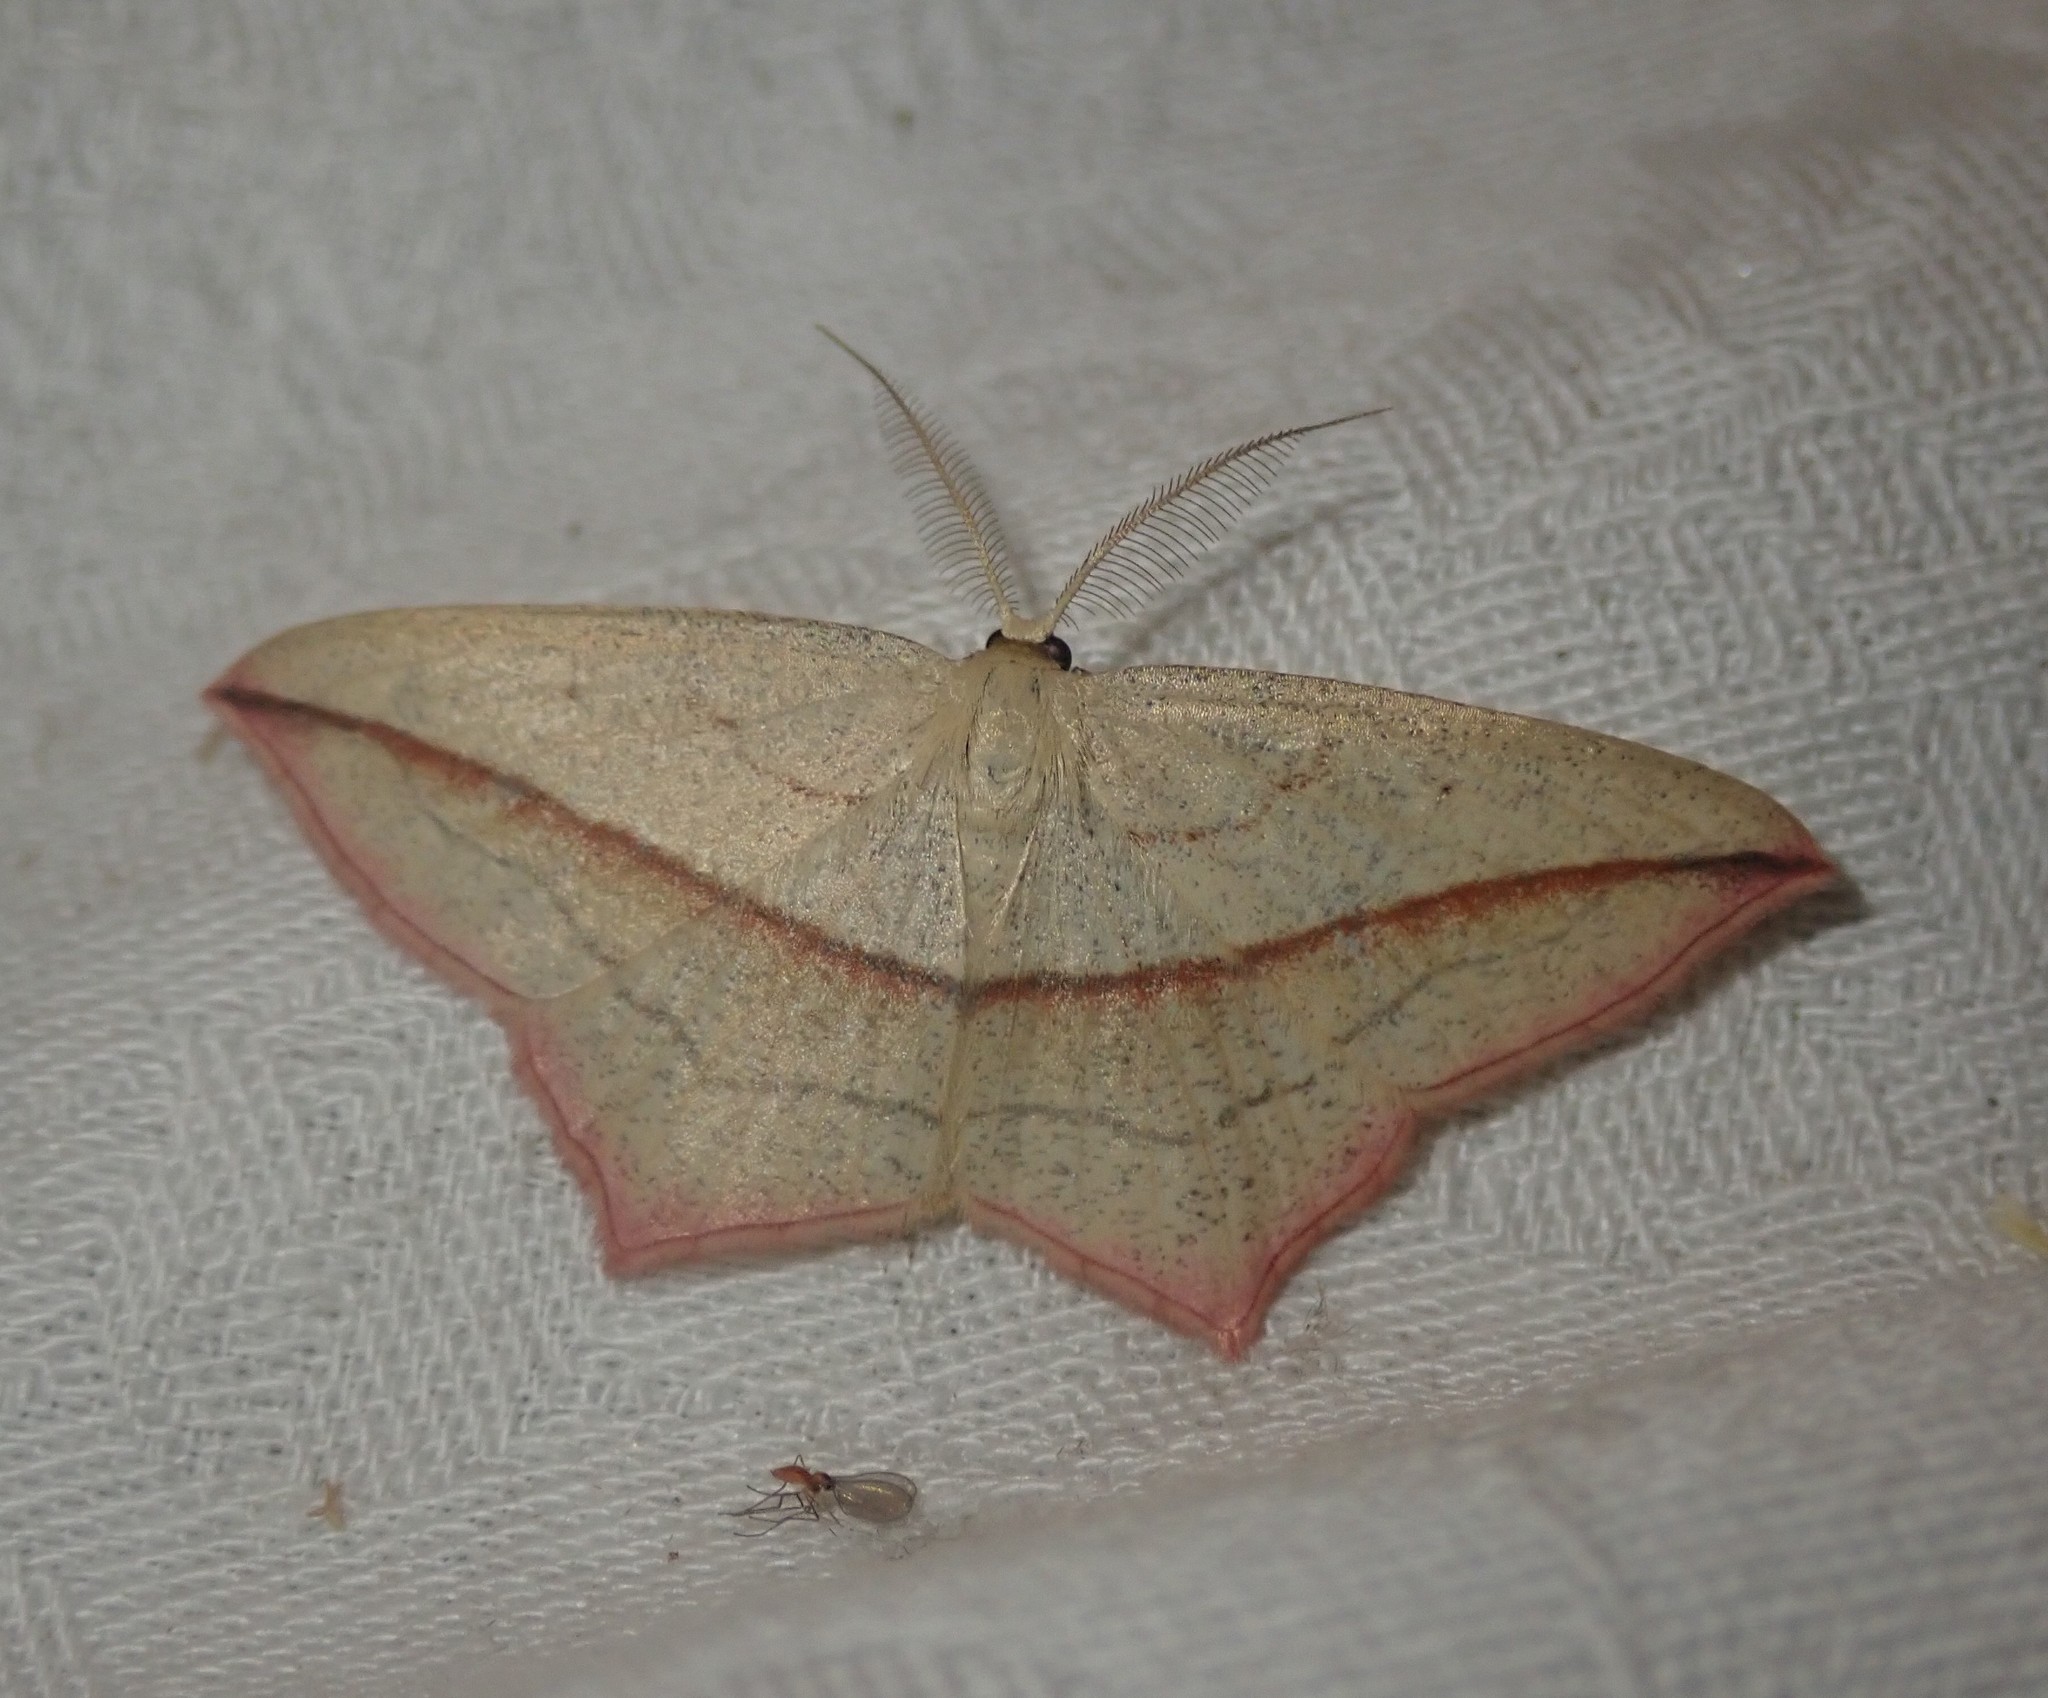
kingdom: Animalia
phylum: Arthropoda
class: Insecta
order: Lepidoptera
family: Geometridae
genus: Timandra
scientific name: Timandra comae
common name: Blood-vein
